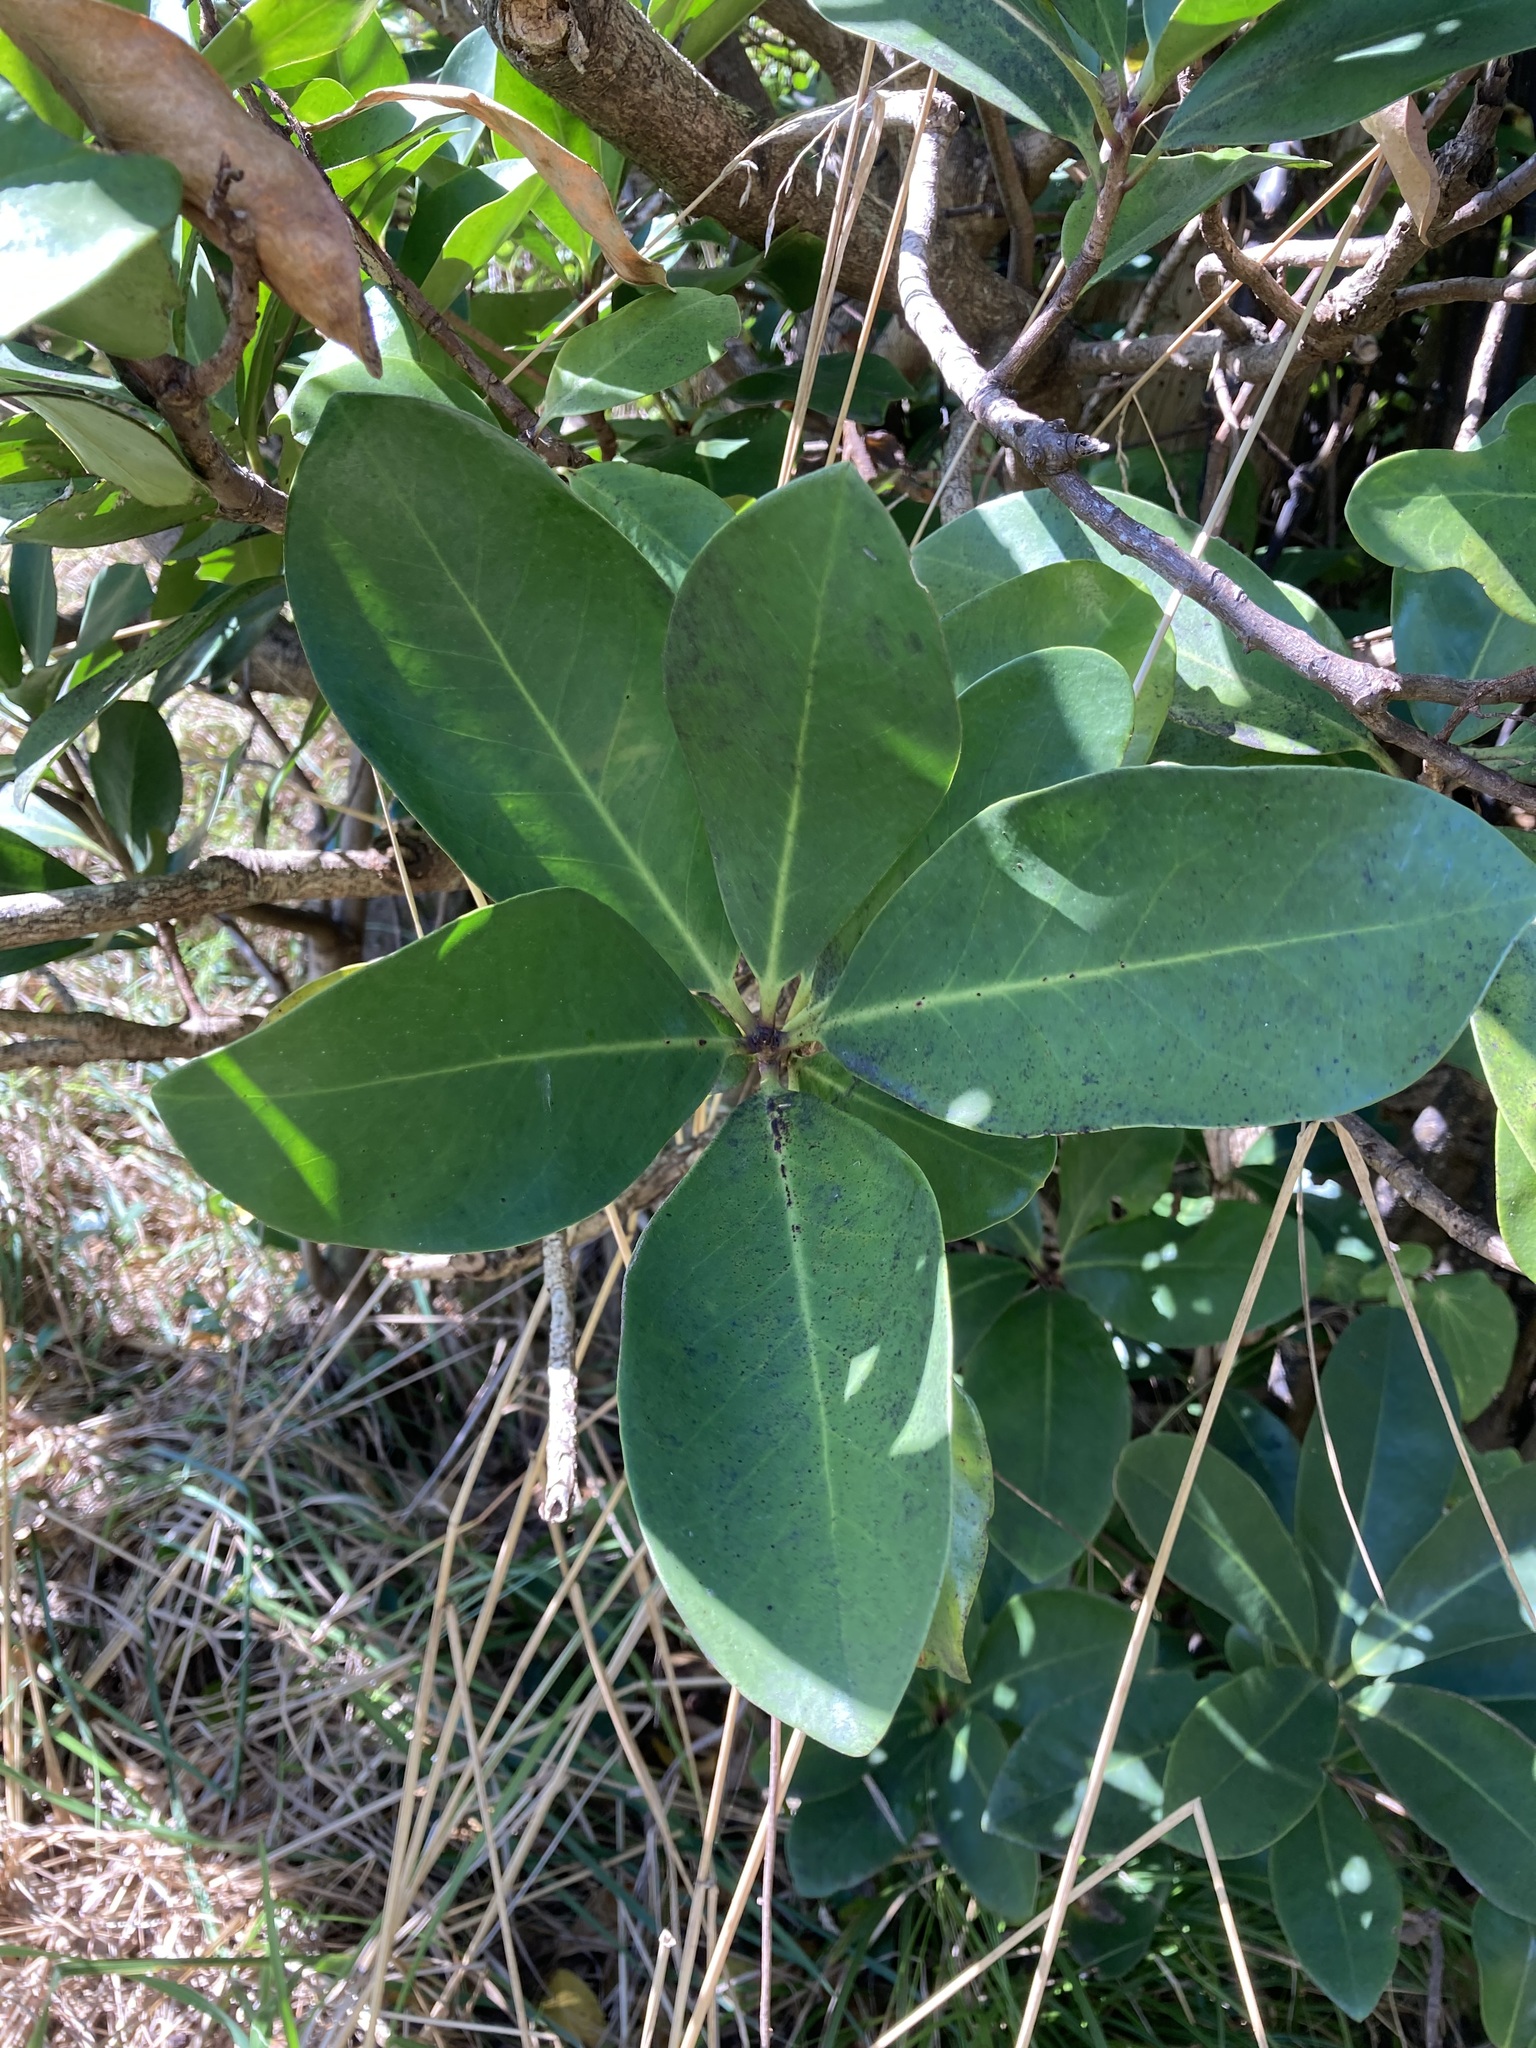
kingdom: Plantae
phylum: Tracheophyta
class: Magnoliopsida
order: Cucurbitales
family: Corynocarpaceae
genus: Corynocarpus
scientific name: Corynocarpus laevigatus
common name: New zealand laurel
